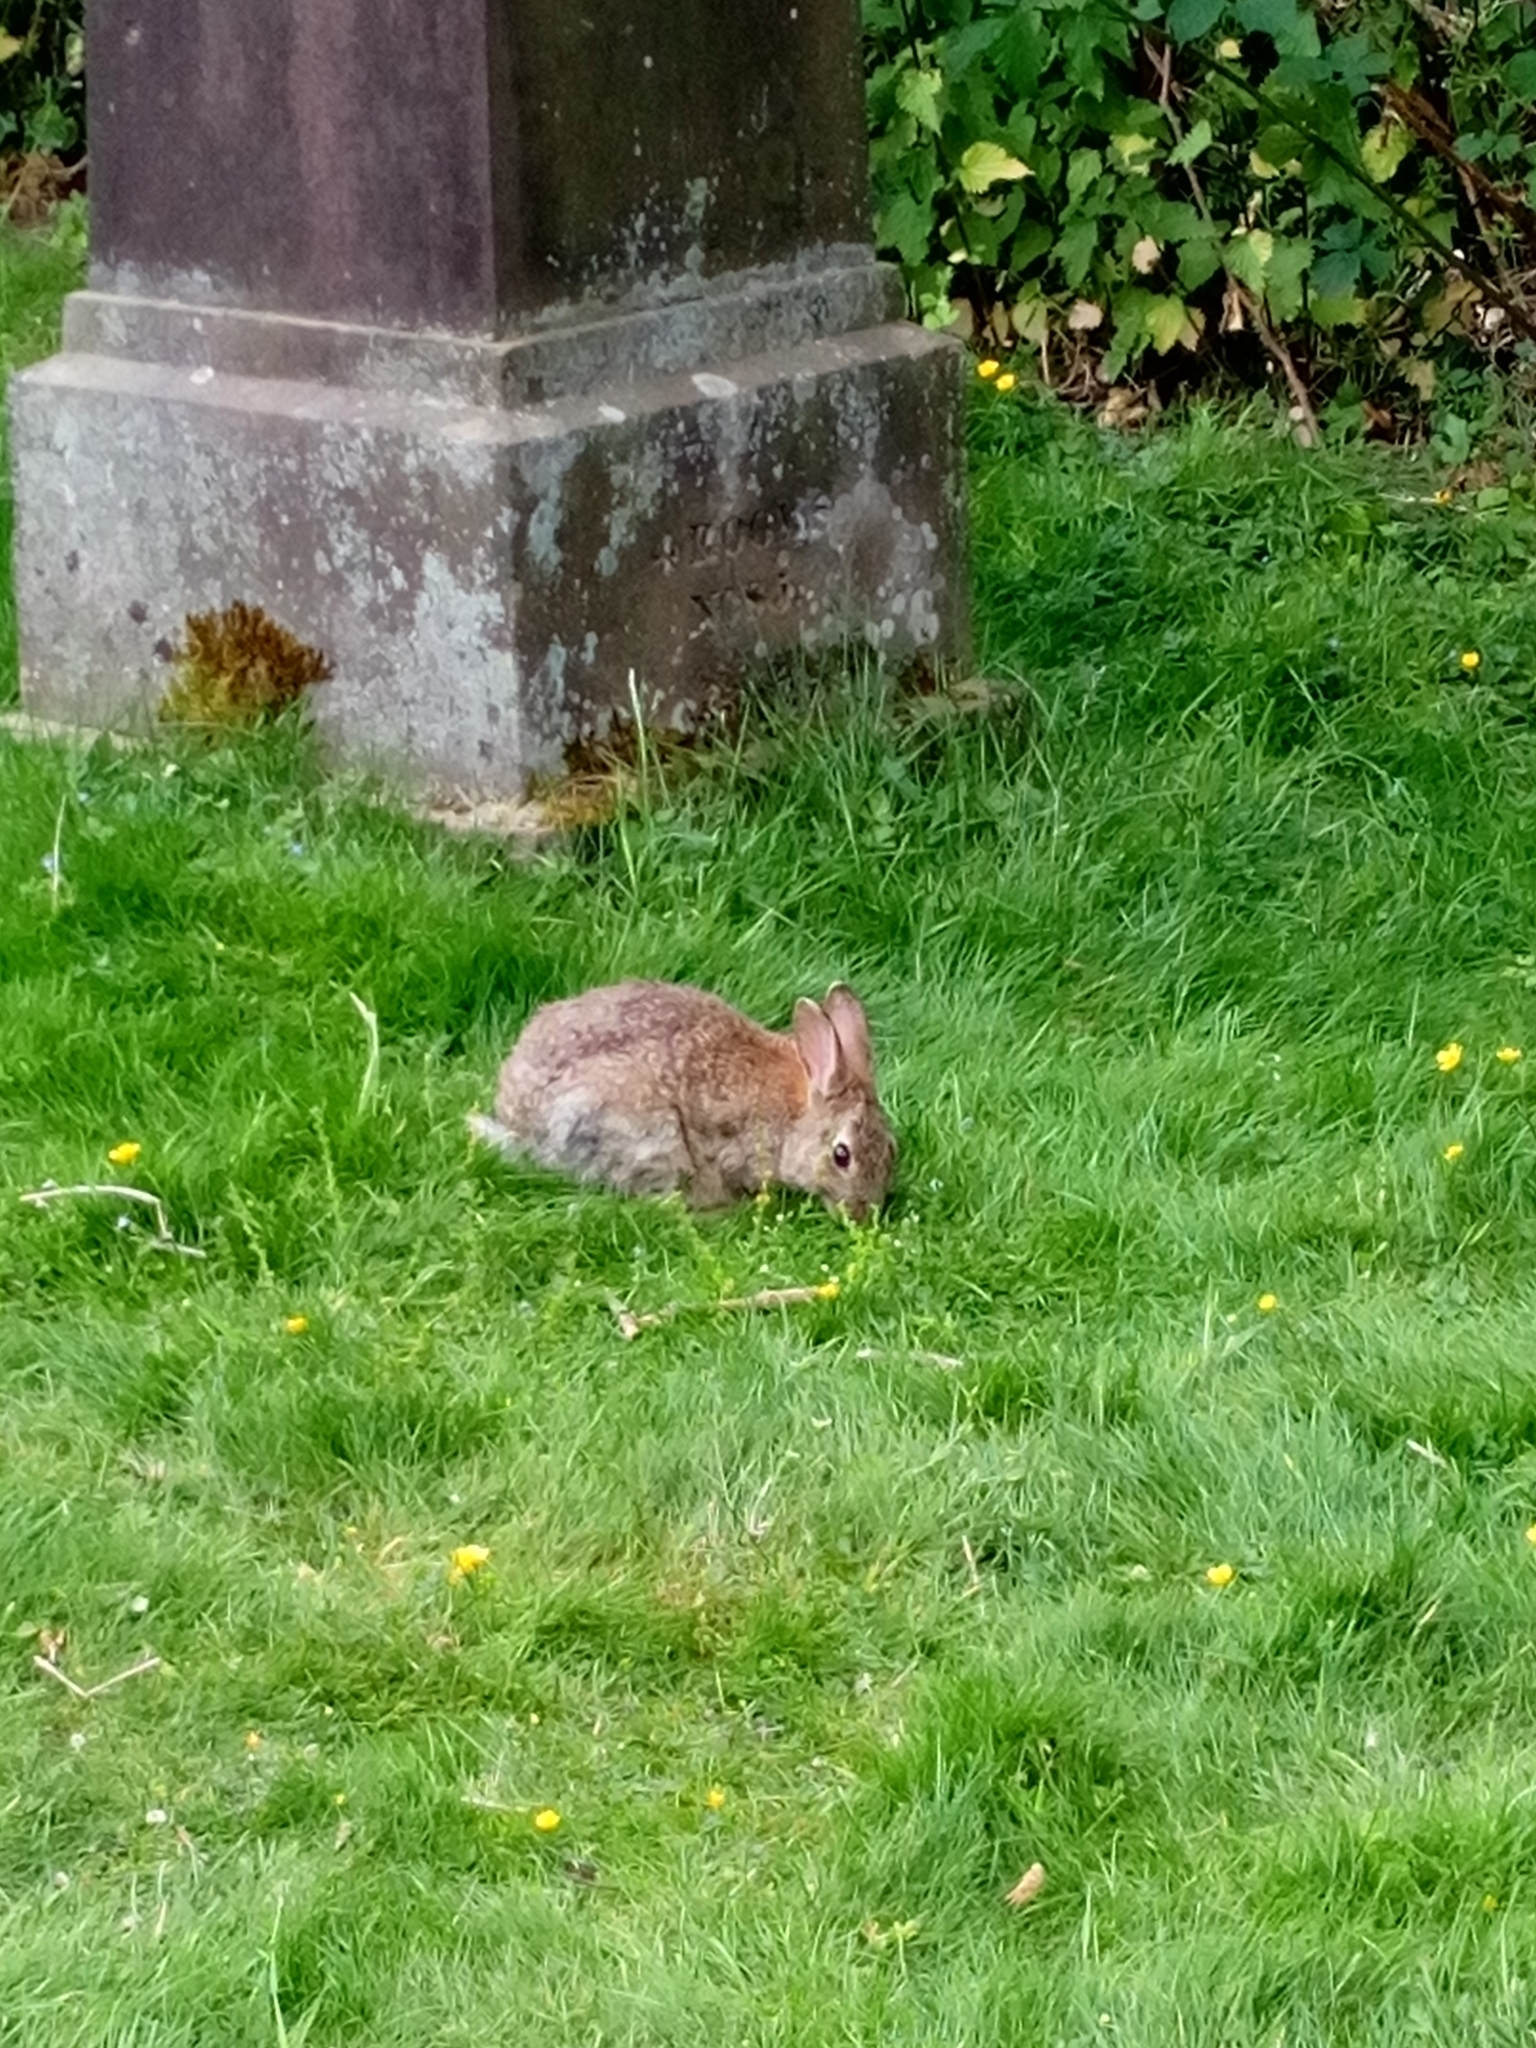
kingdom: Animalia
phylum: Chordata
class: Mammalia
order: Lagomorpha
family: Leporidae
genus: Oryctolagus
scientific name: Oryctolagus cuniculus
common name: European rabbit
